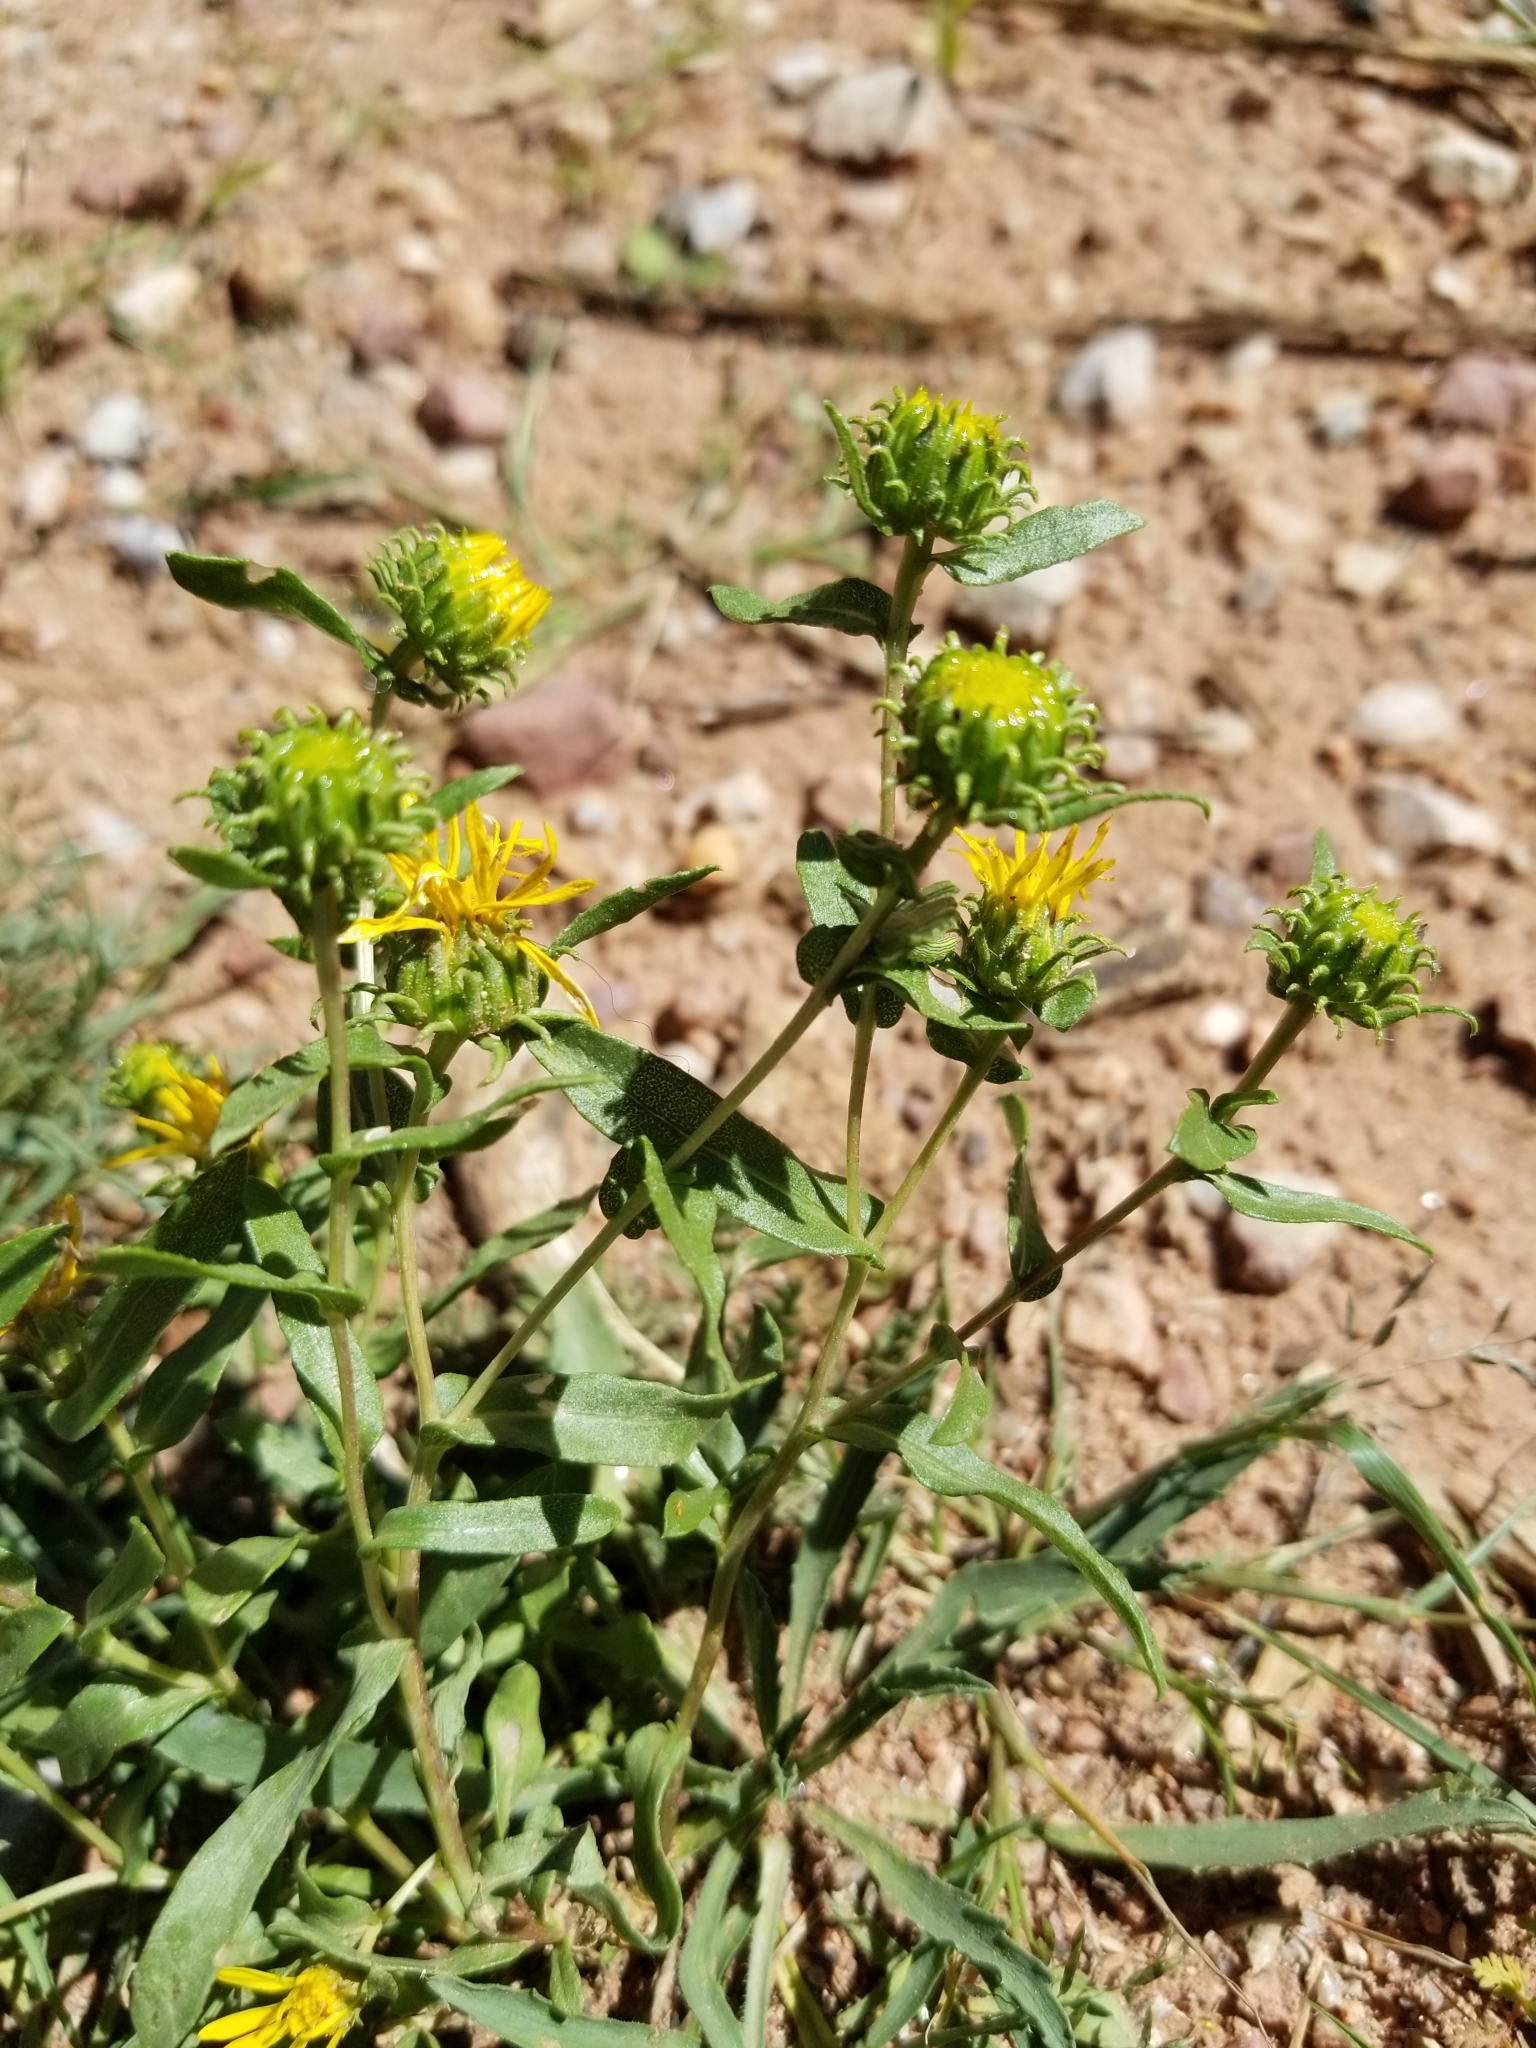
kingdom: Plantae
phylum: Tracheophyta
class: Magnoliopsida
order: Asterales
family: Asteraceae
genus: Grindelia
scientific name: Grindelia squarrosa
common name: Curly-cup gumweed
